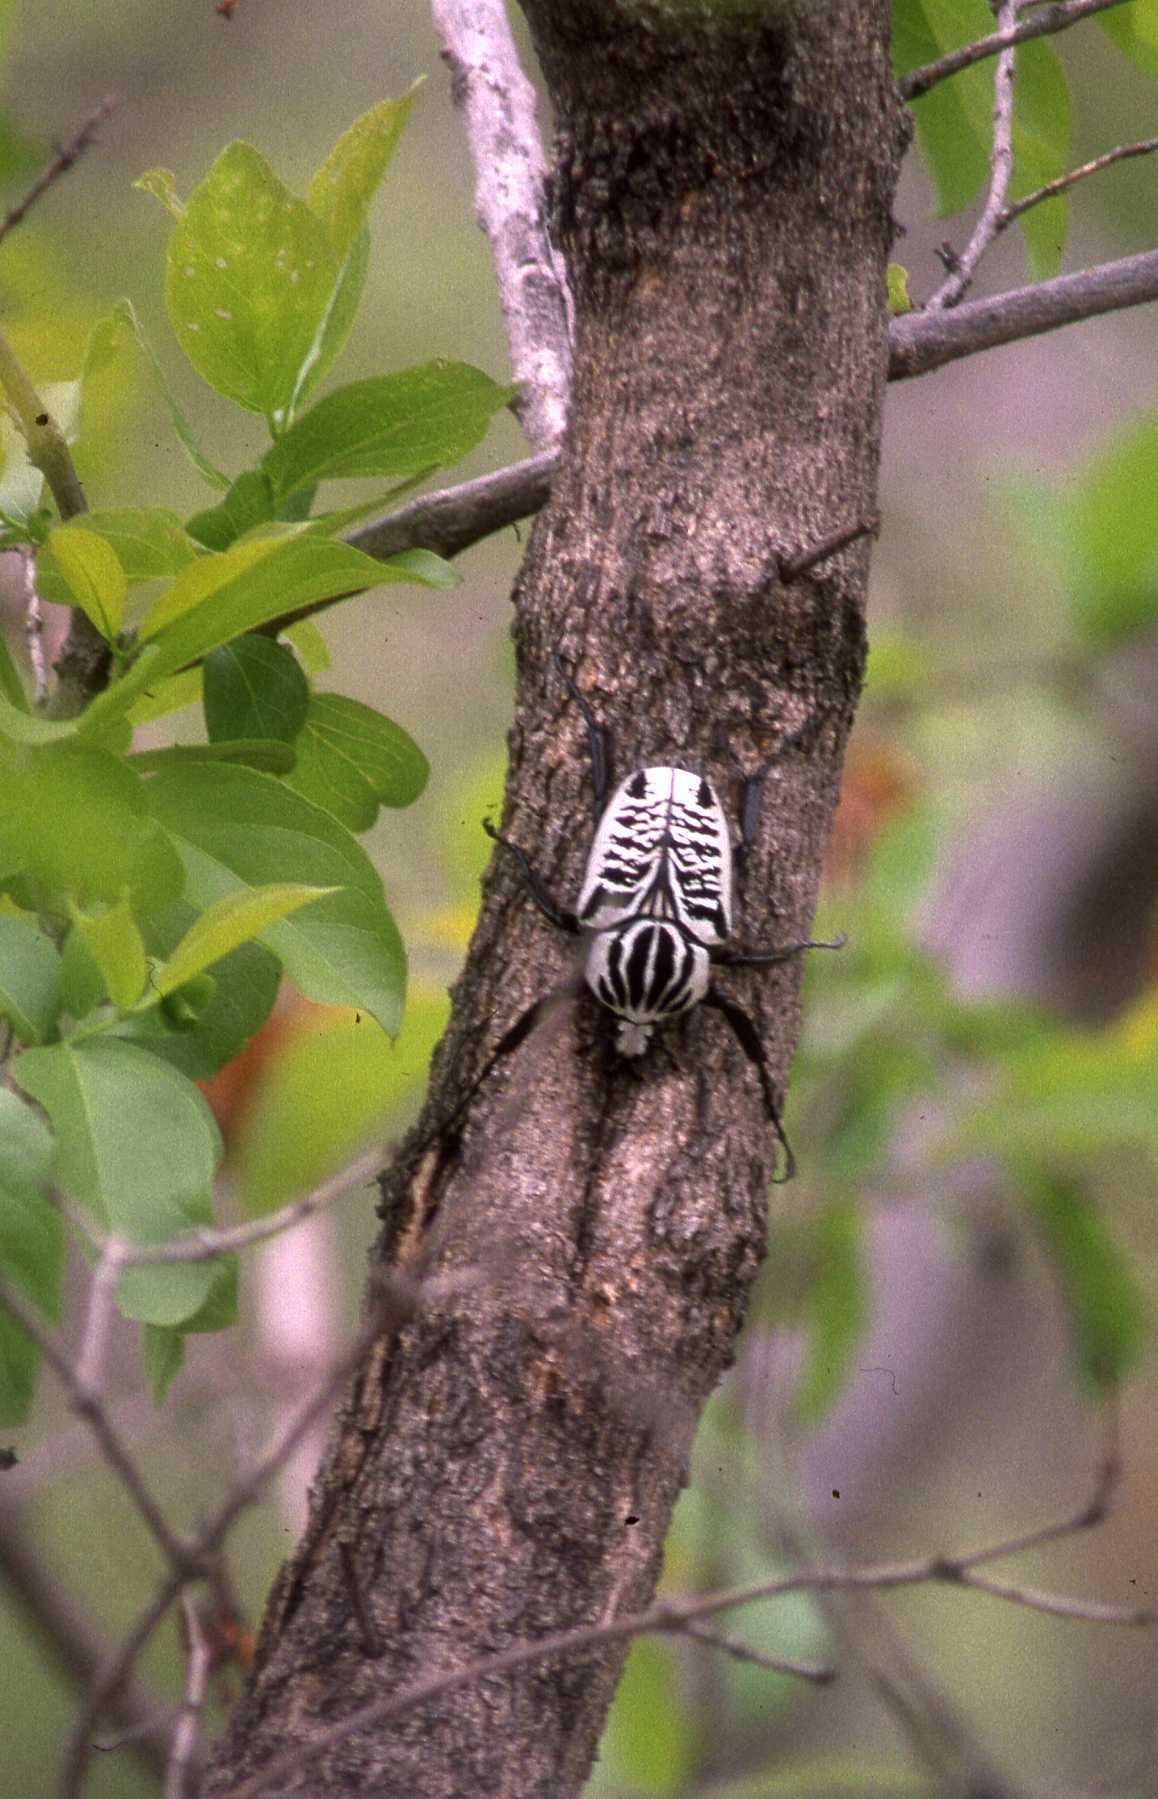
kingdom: Animalia
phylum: Arthropoda
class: Insecta
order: Coleoptera
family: Scarabaeidae
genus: Goliathus
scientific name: Goliathus albosignatus
